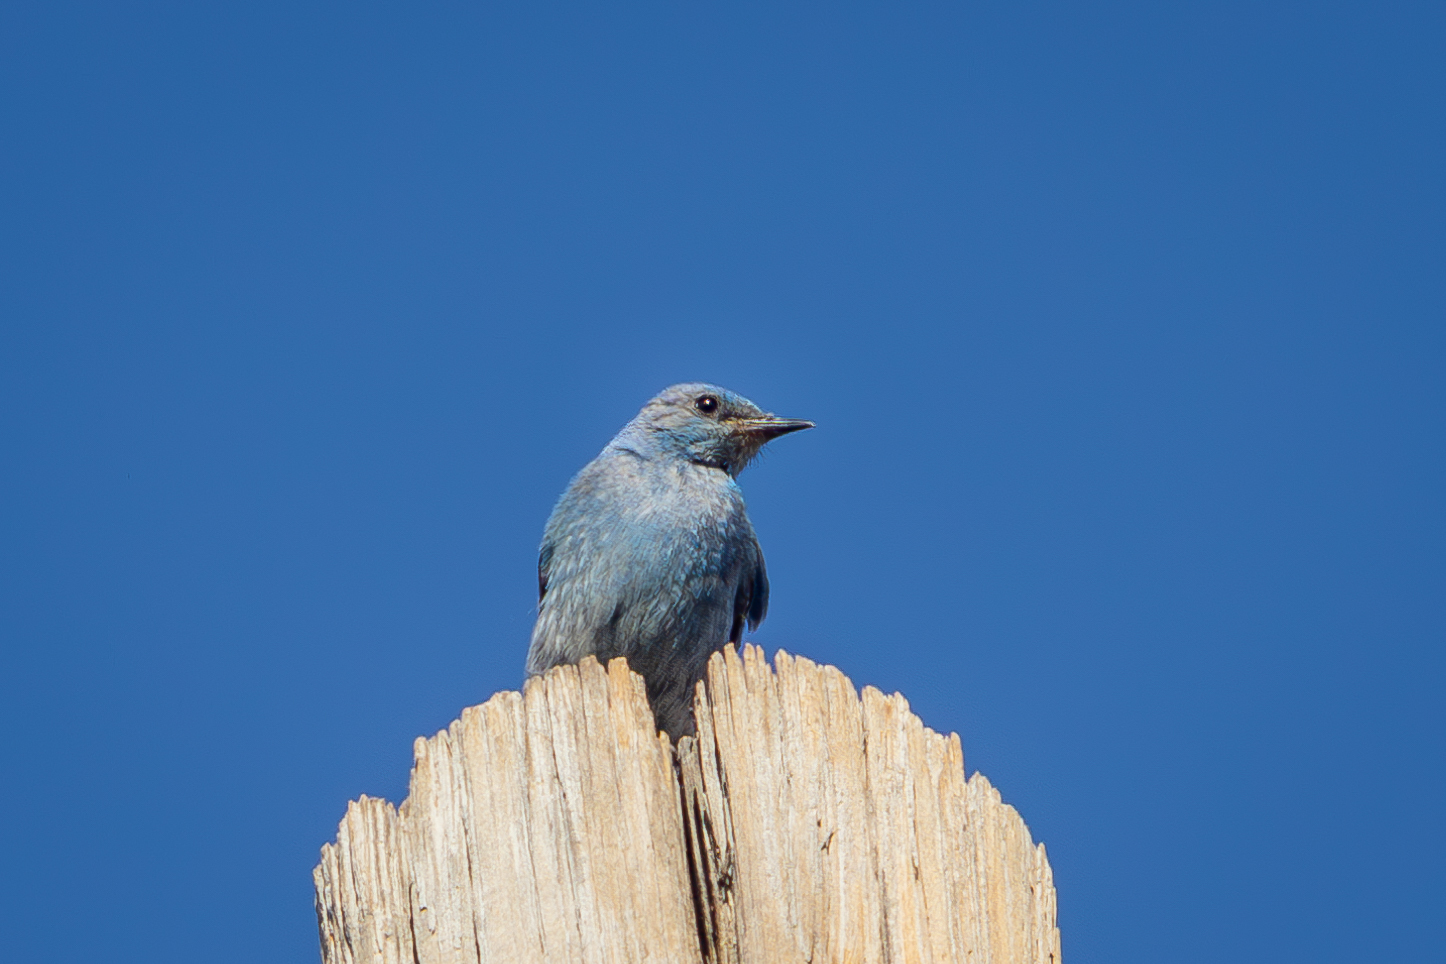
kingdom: Animalia
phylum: Chordata
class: Aves
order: Passeriformes
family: Turdidae
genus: Sialia
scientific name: Sialia currucoides
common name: Mountain bluebird
